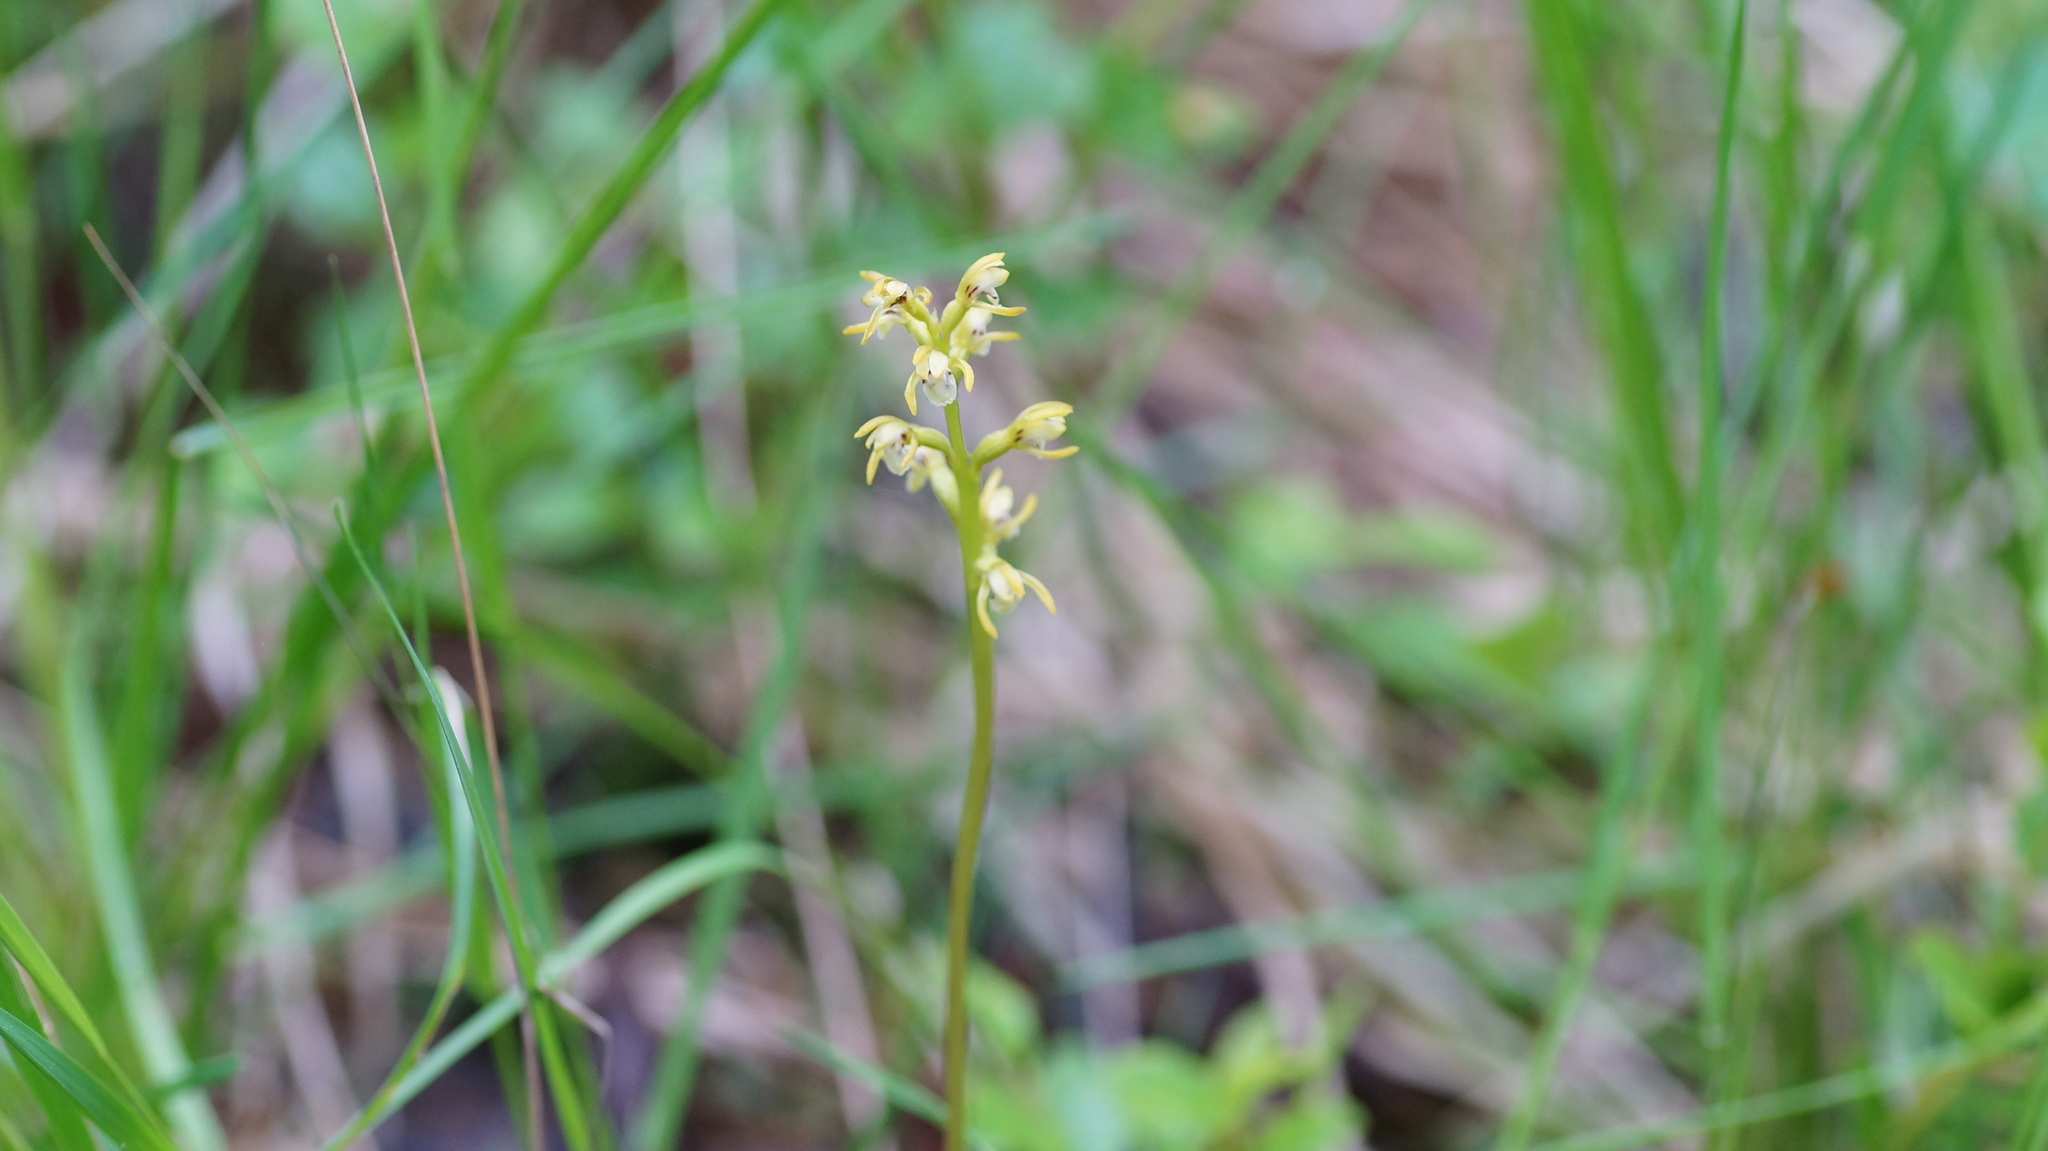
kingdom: Plantae
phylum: Tracheophyta
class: Liliopsida
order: Asparagales
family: Orchidaceae
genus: Corallorhiza
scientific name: Corallorhiza trifida
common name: Yellow coralroot
